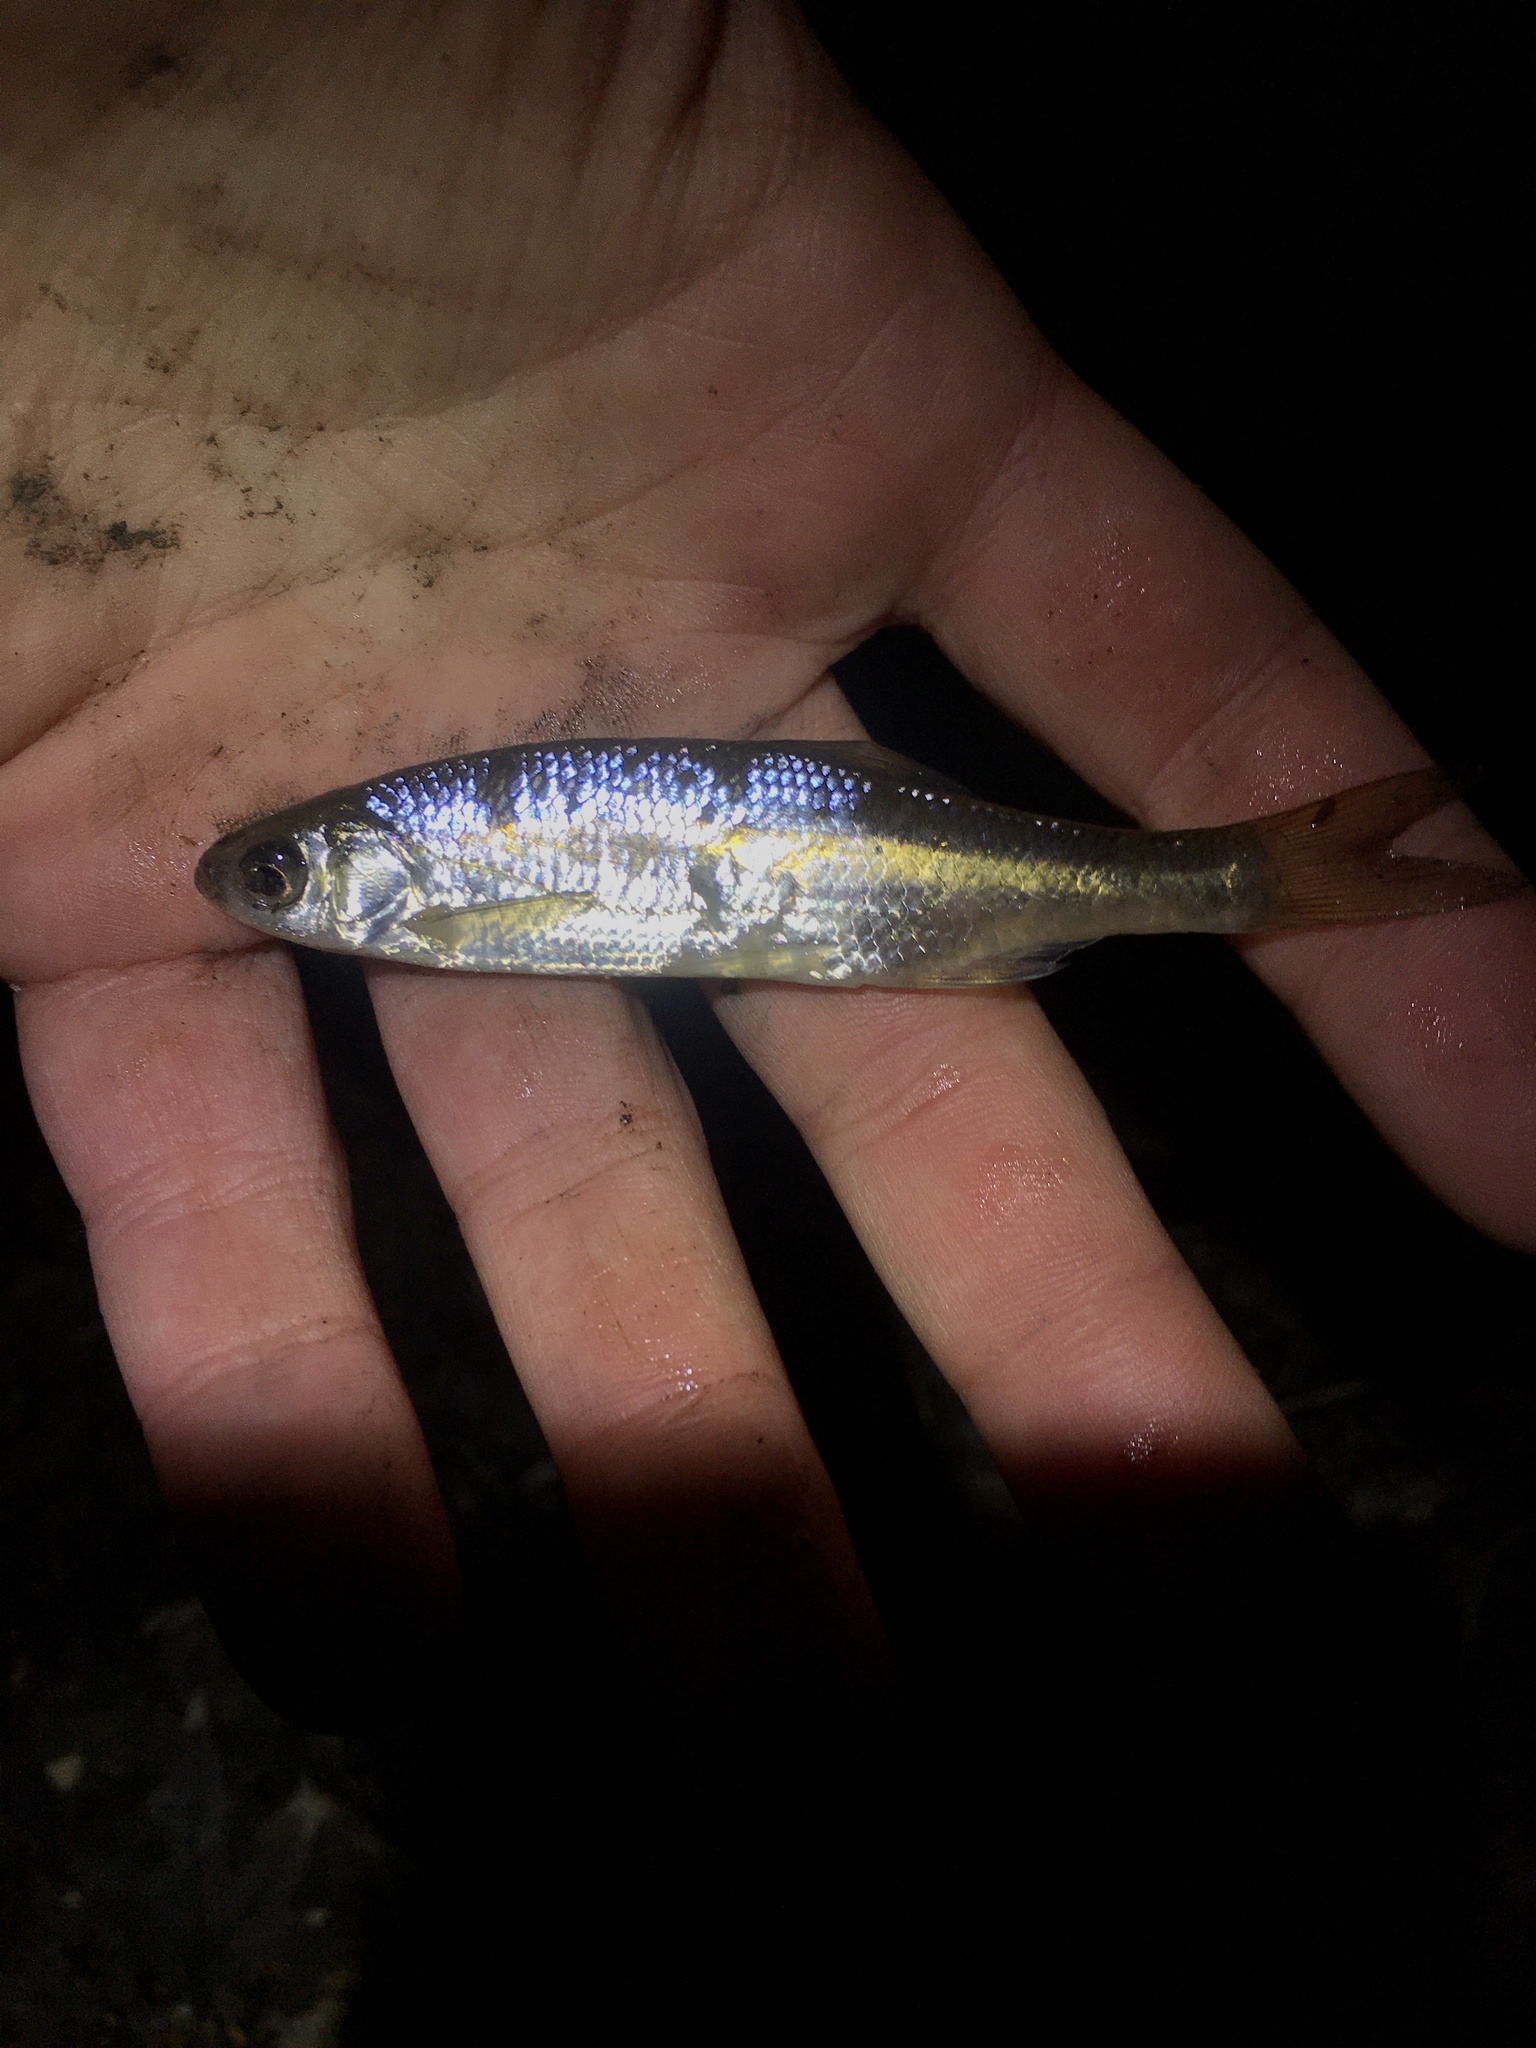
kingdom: Animalia
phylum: Chordata
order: Cypriniformes
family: Cyprinidae
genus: Notemigonus
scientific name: Notemigonus crysoleucas
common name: Golden shiner
